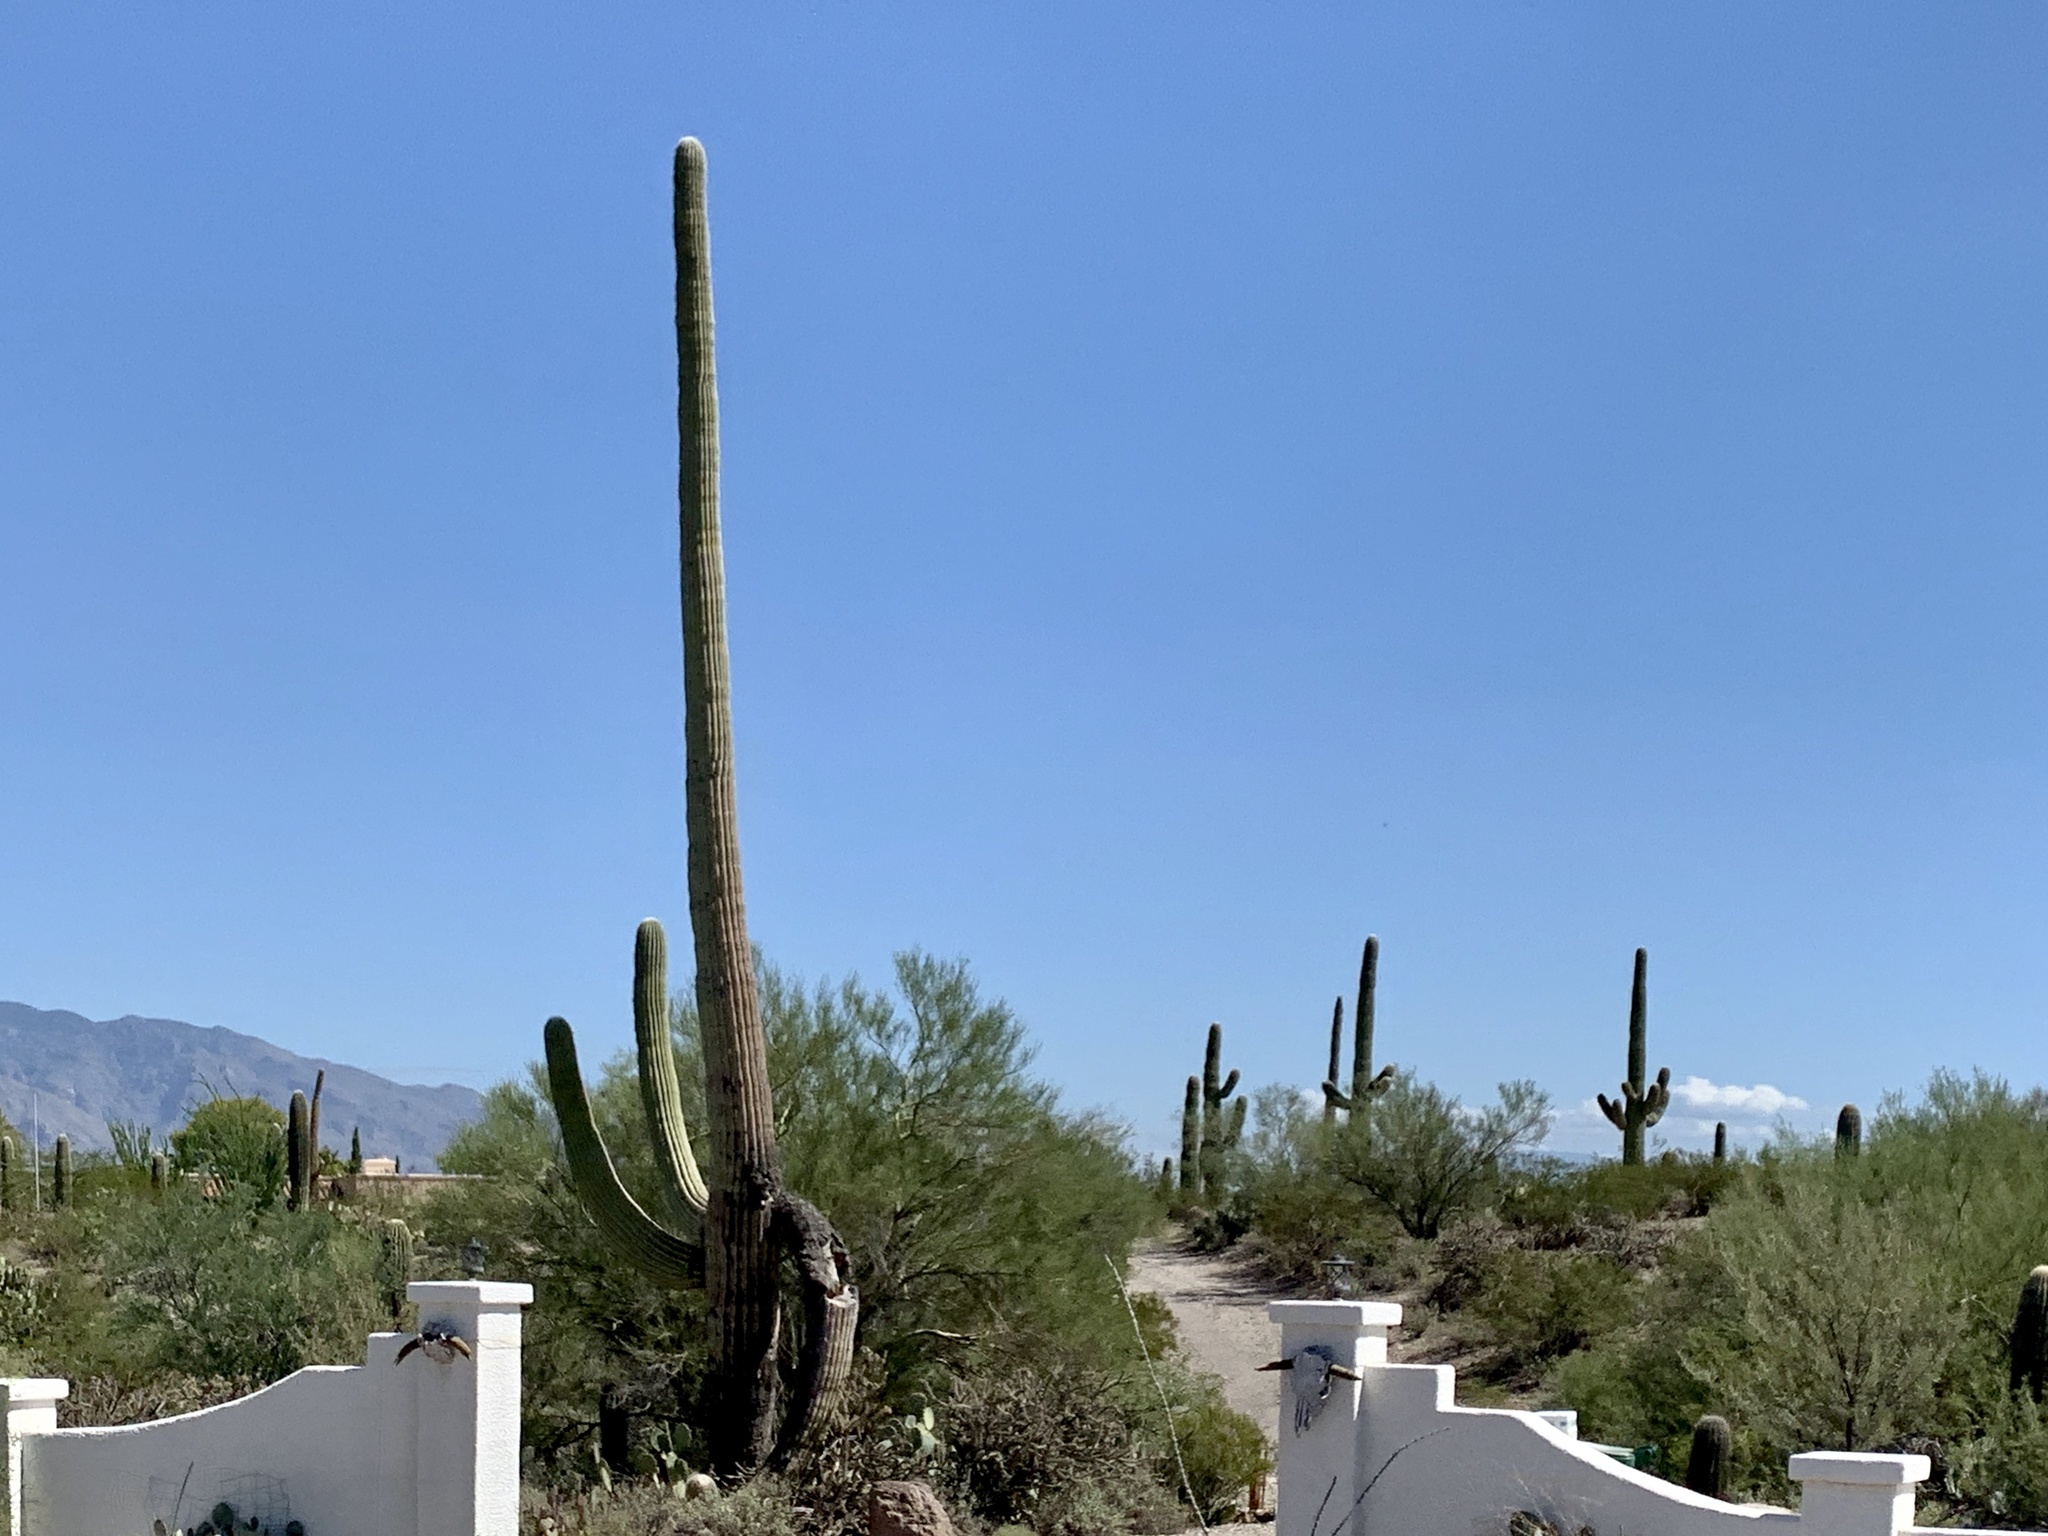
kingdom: Plantae
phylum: Tracheophyta
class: Magnoliopsida
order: Caryophyllales
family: Cactaceae
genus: Carnegiea
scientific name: Carnegiea gigantea
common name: Saguaro
